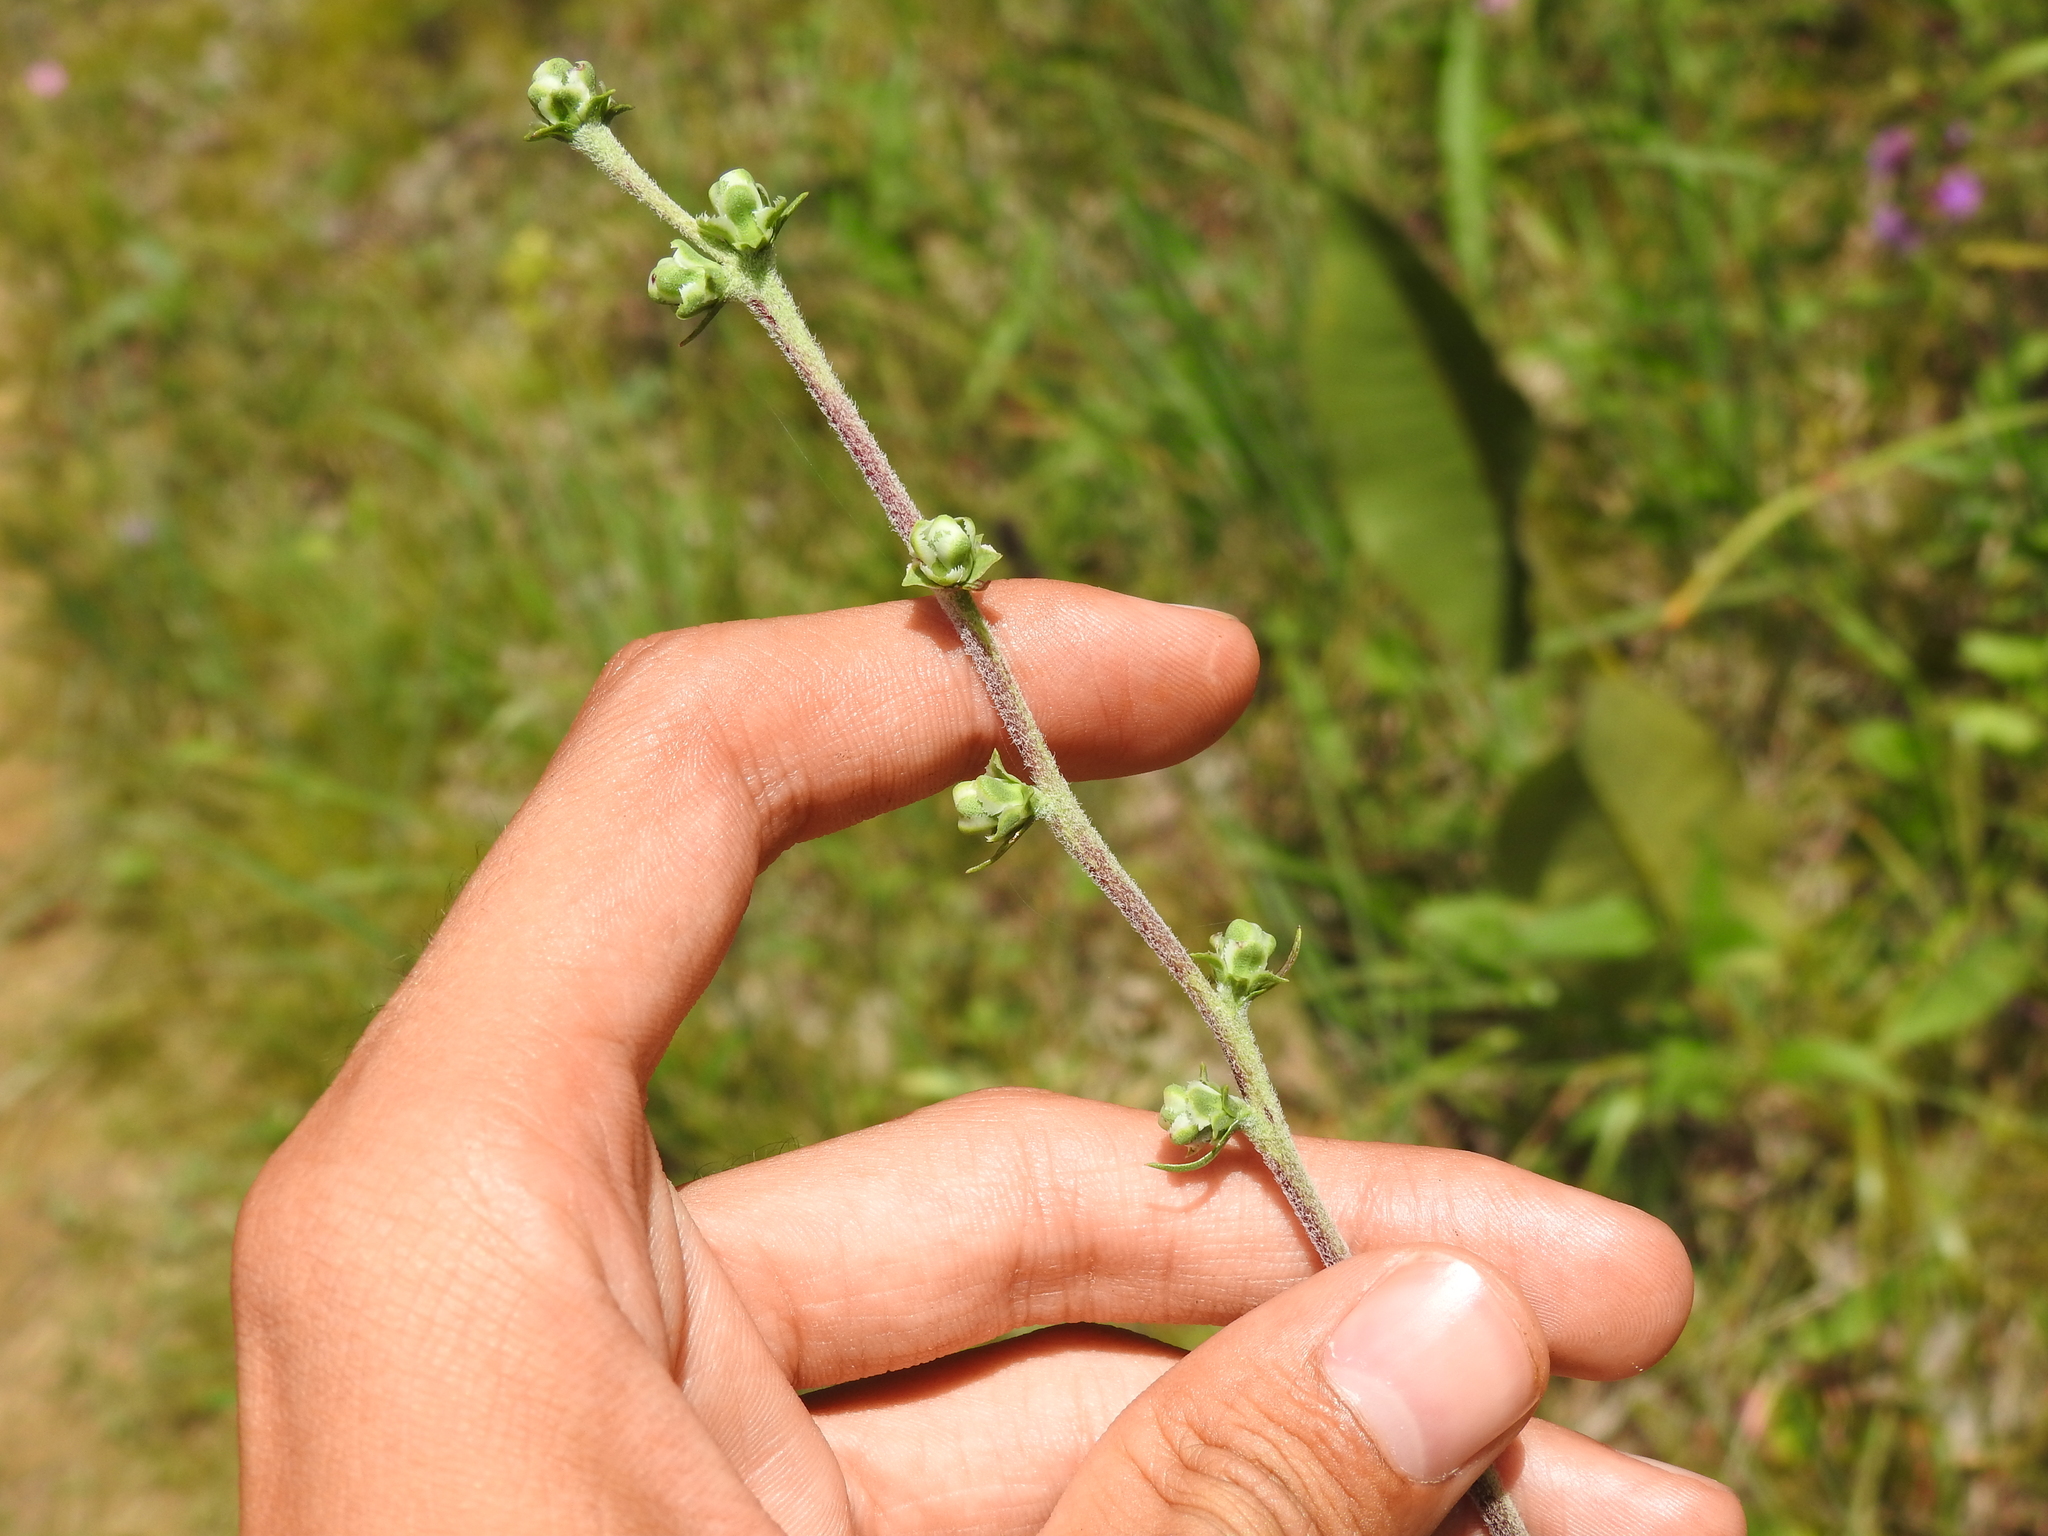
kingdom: Plantae
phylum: Tracheophyta
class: Magnoliopsida
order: Asterales
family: Asteraceae
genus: Liatris
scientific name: Liatris aspera
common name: Lacerate blazing-star
